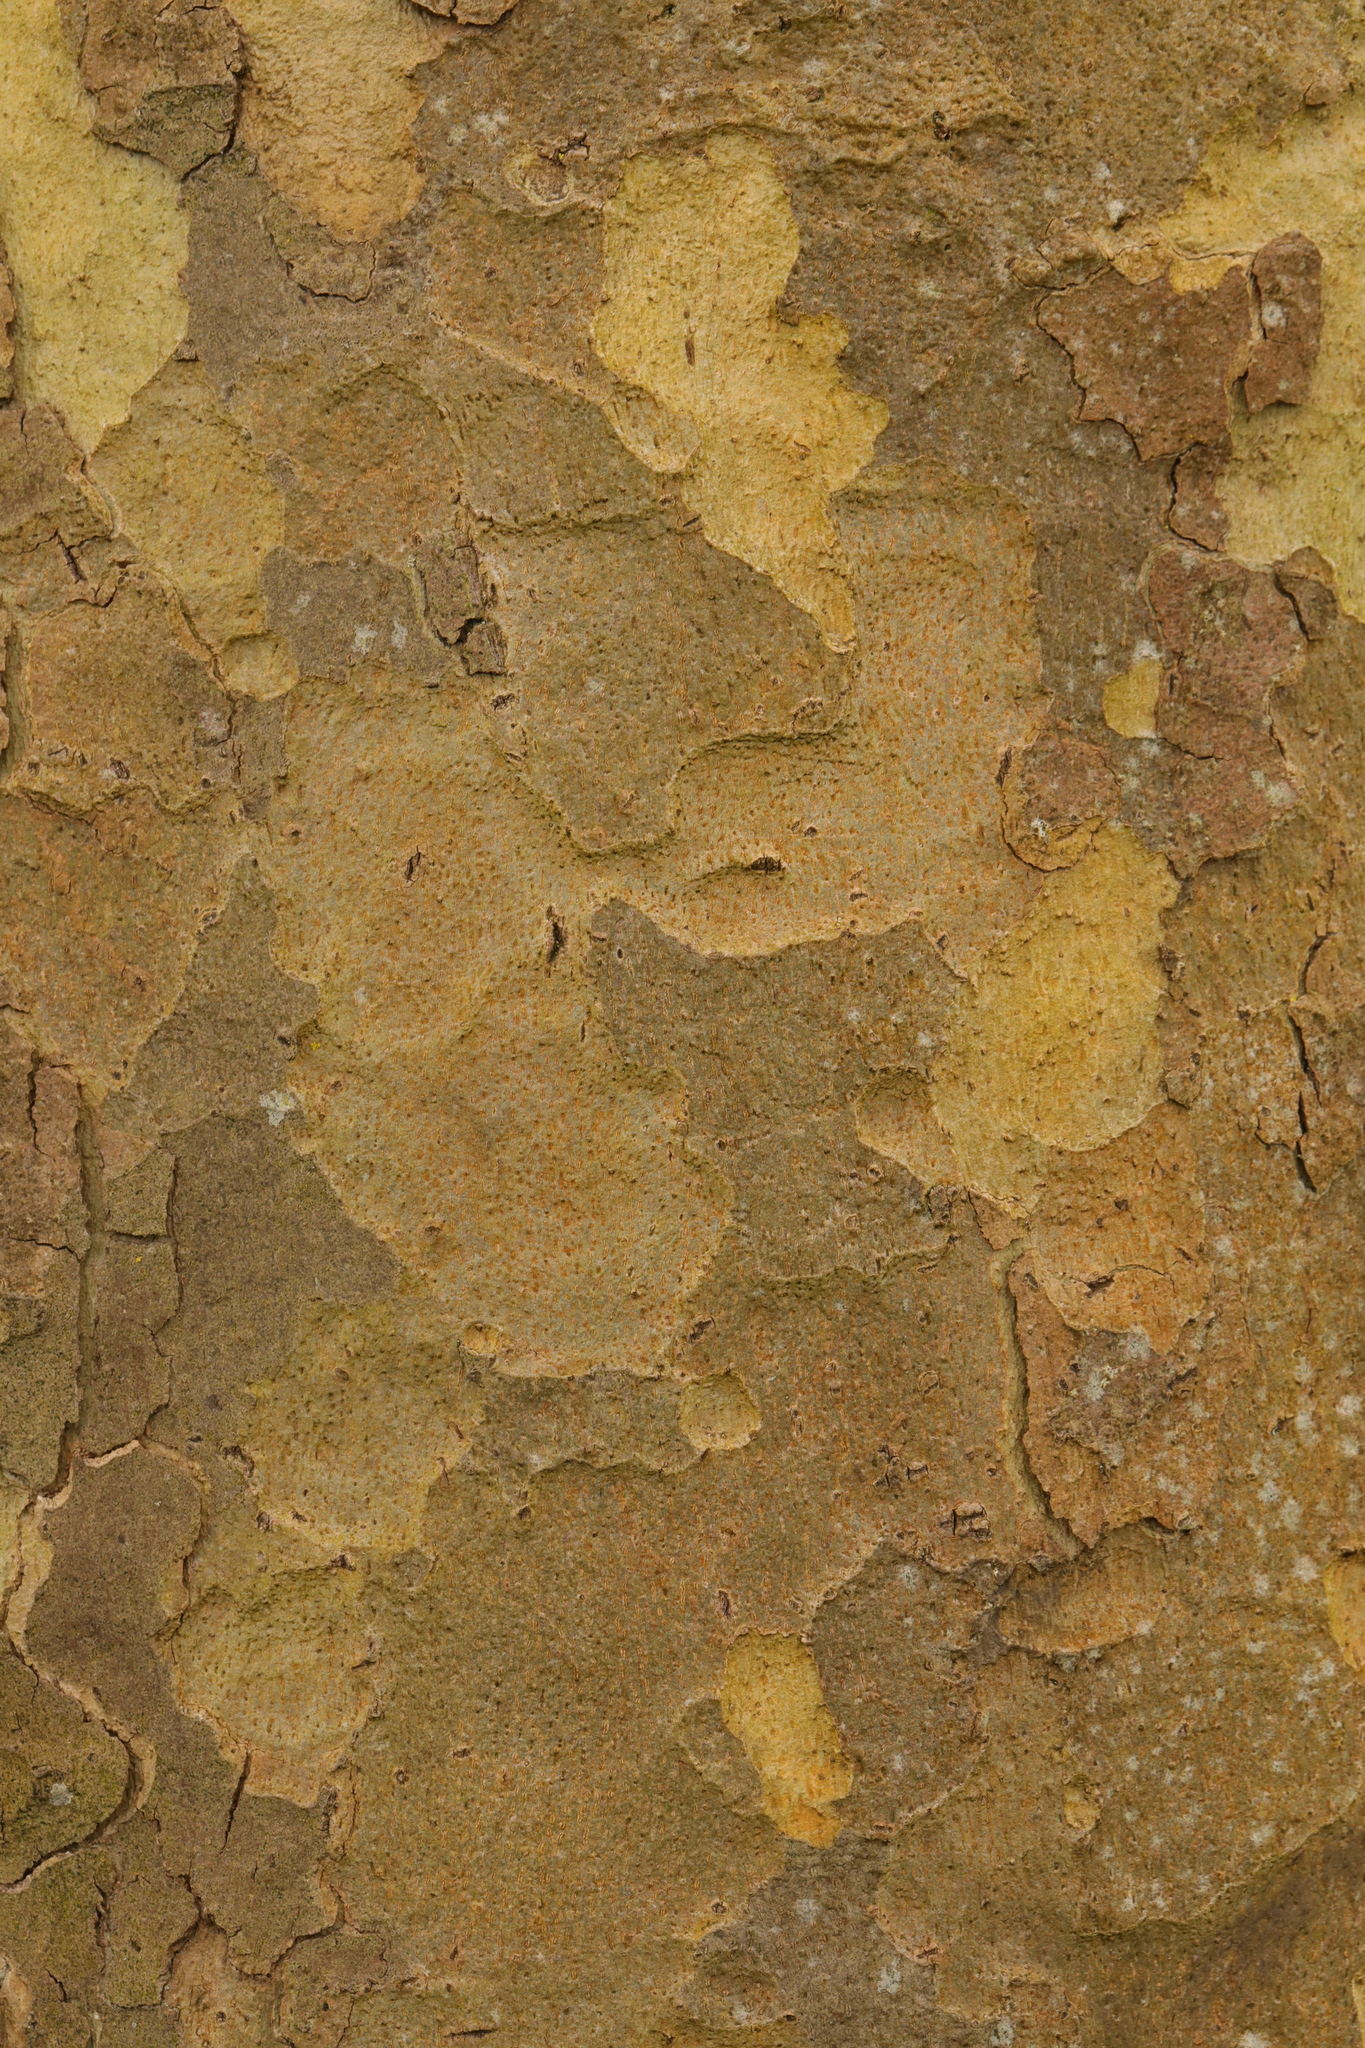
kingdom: Plantae
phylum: Tracheophyta
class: Magnoliopsida
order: Proteales
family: Platanaceae
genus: Platanus
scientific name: Platanus hispanica
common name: London plane
